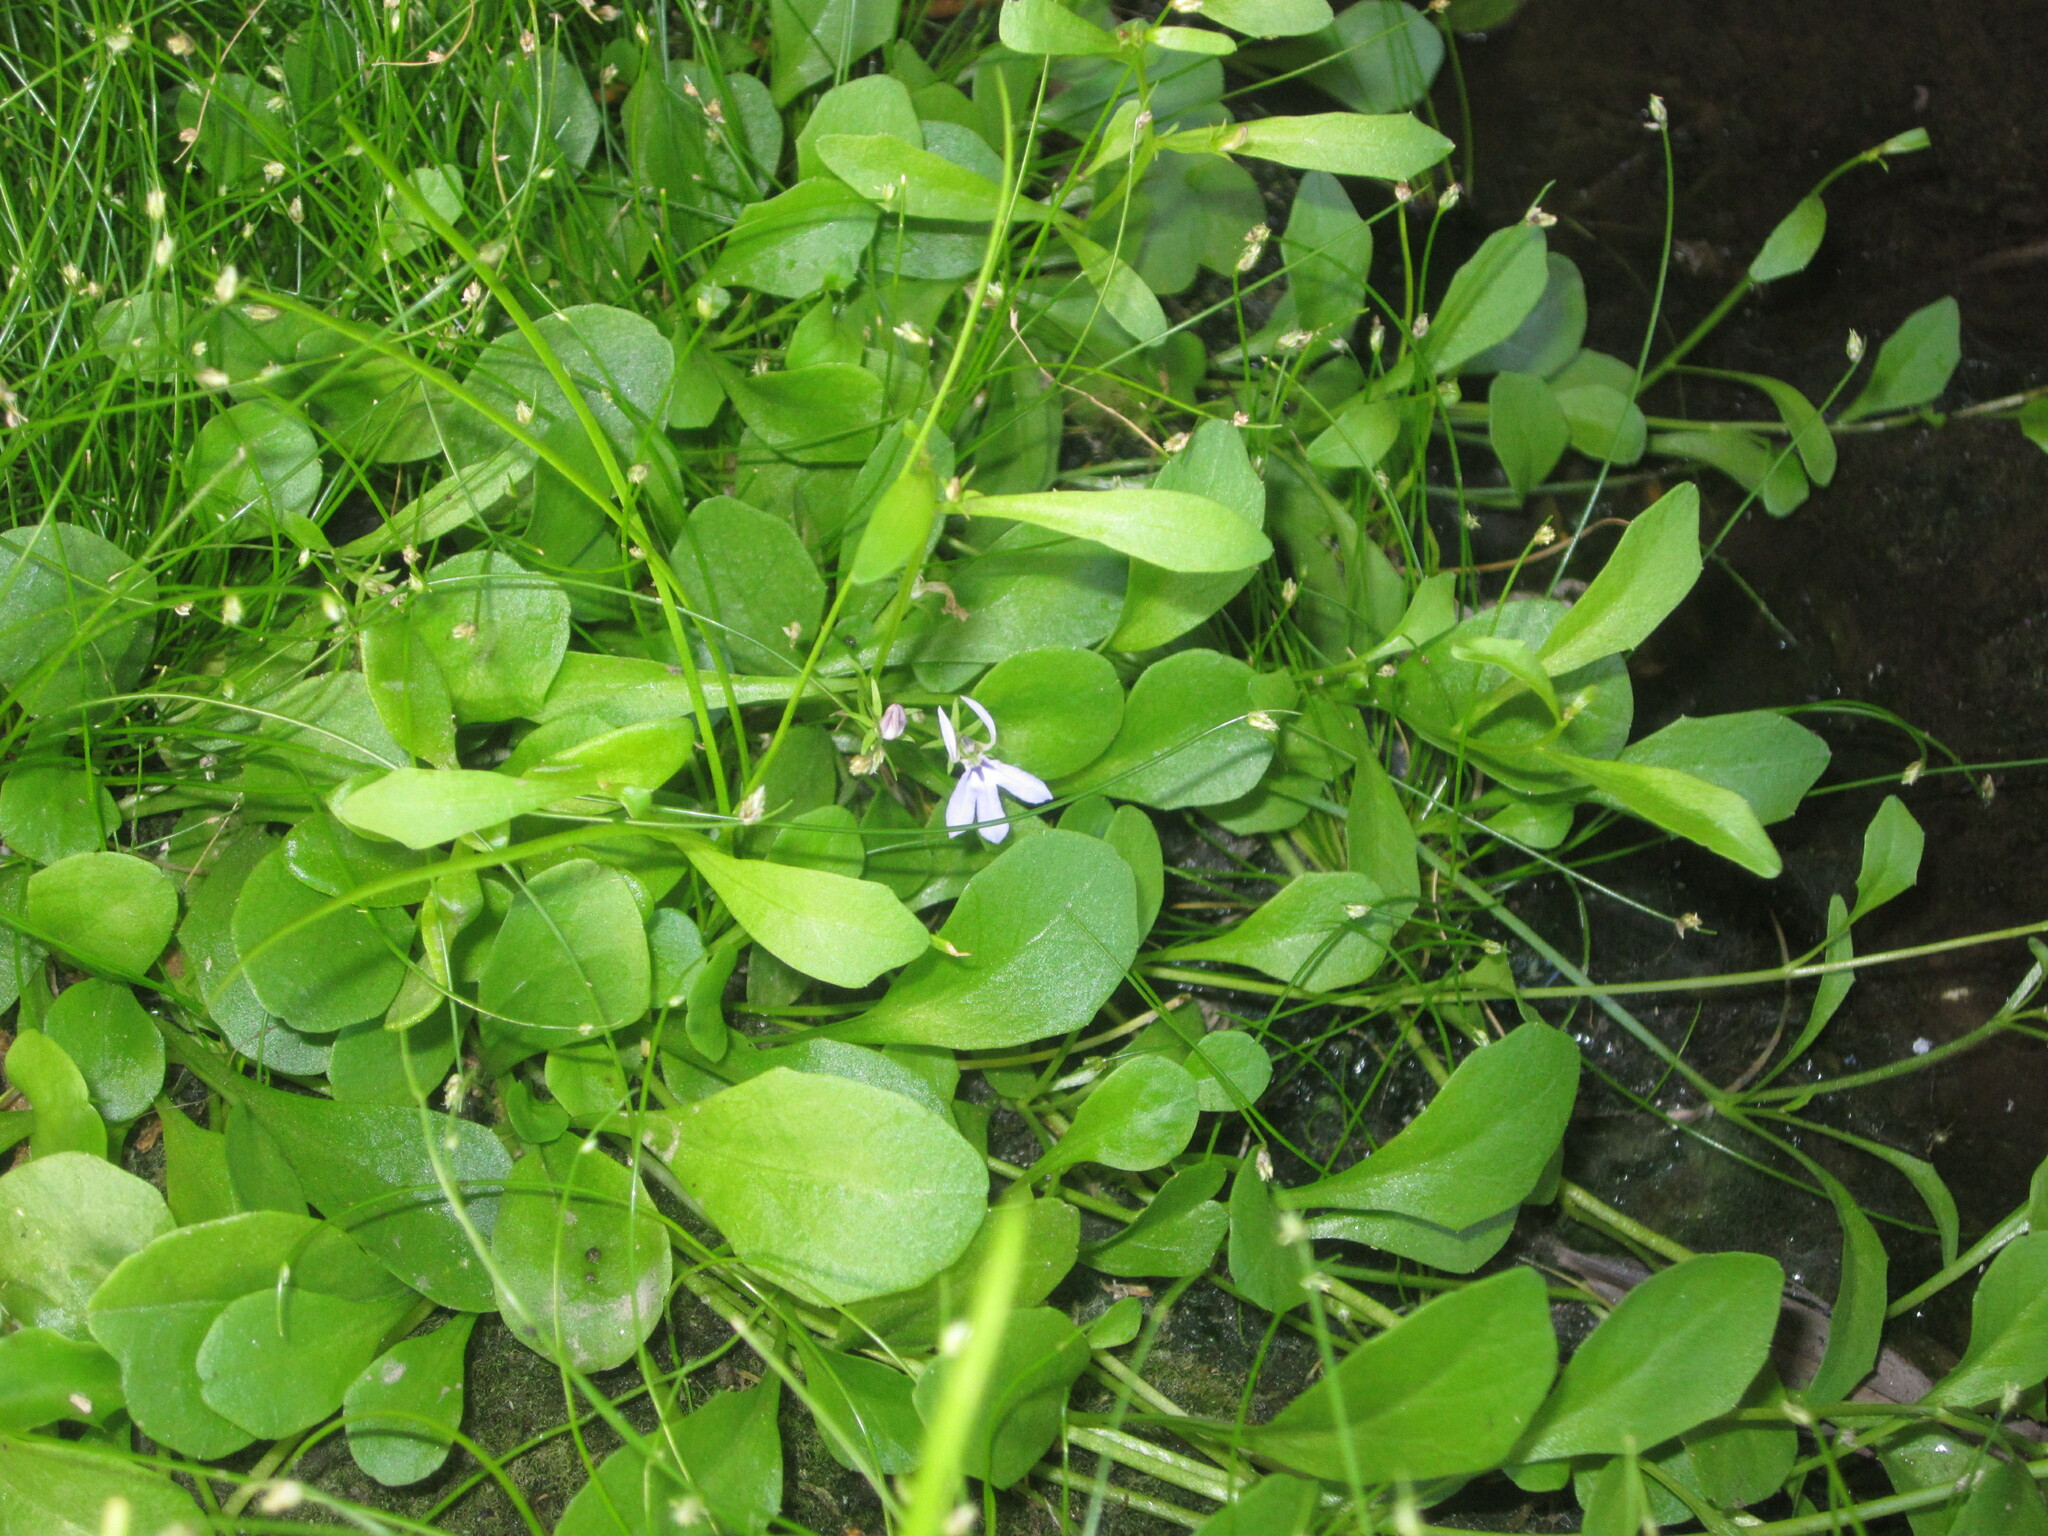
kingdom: Plantae
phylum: Tracheophyta
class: Magnoliopsida
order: Asterales
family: Campanulaceae
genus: Lobelia
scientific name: Lobelia anceps
